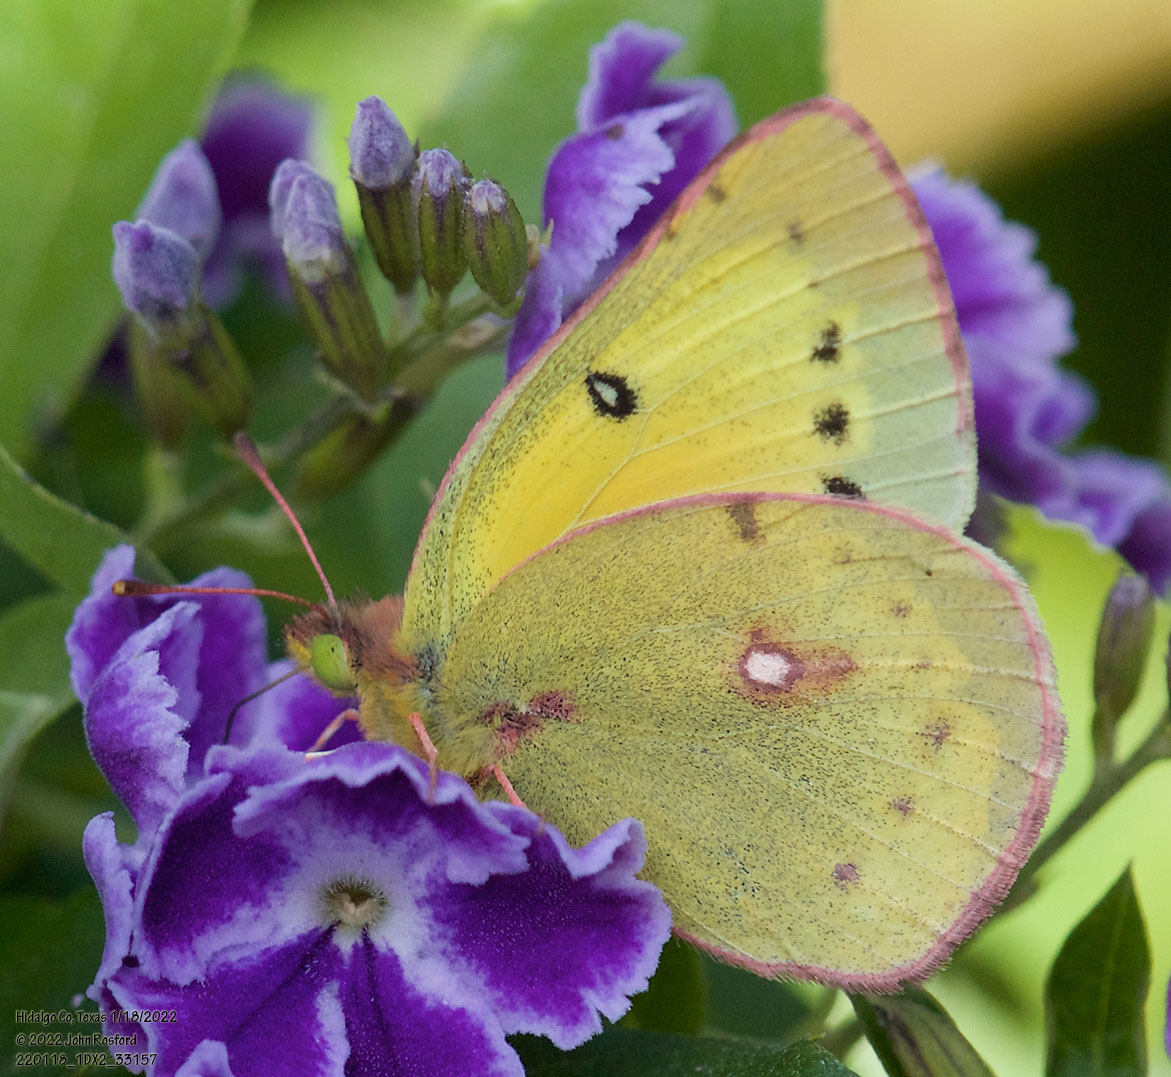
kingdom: Animalia
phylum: Arthropoda
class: Insecta
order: Lepidoptera
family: Pieridae
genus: Colias
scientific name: Colias eurytheme
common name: Alfalfa butterfly
